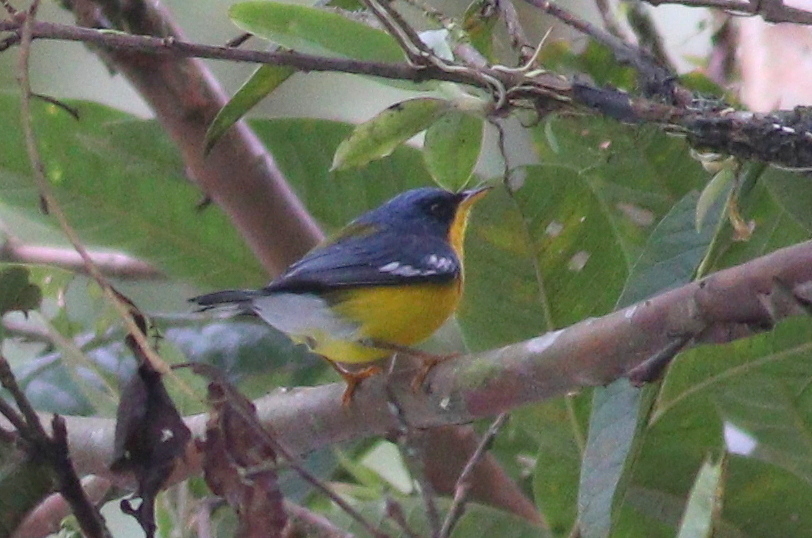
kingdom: Animalia
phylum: Chordata
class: Aves
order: Passeriformes
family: Parulidae
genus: Setophaga
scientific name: Setophaga pitiayumi
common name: Tropical parula
